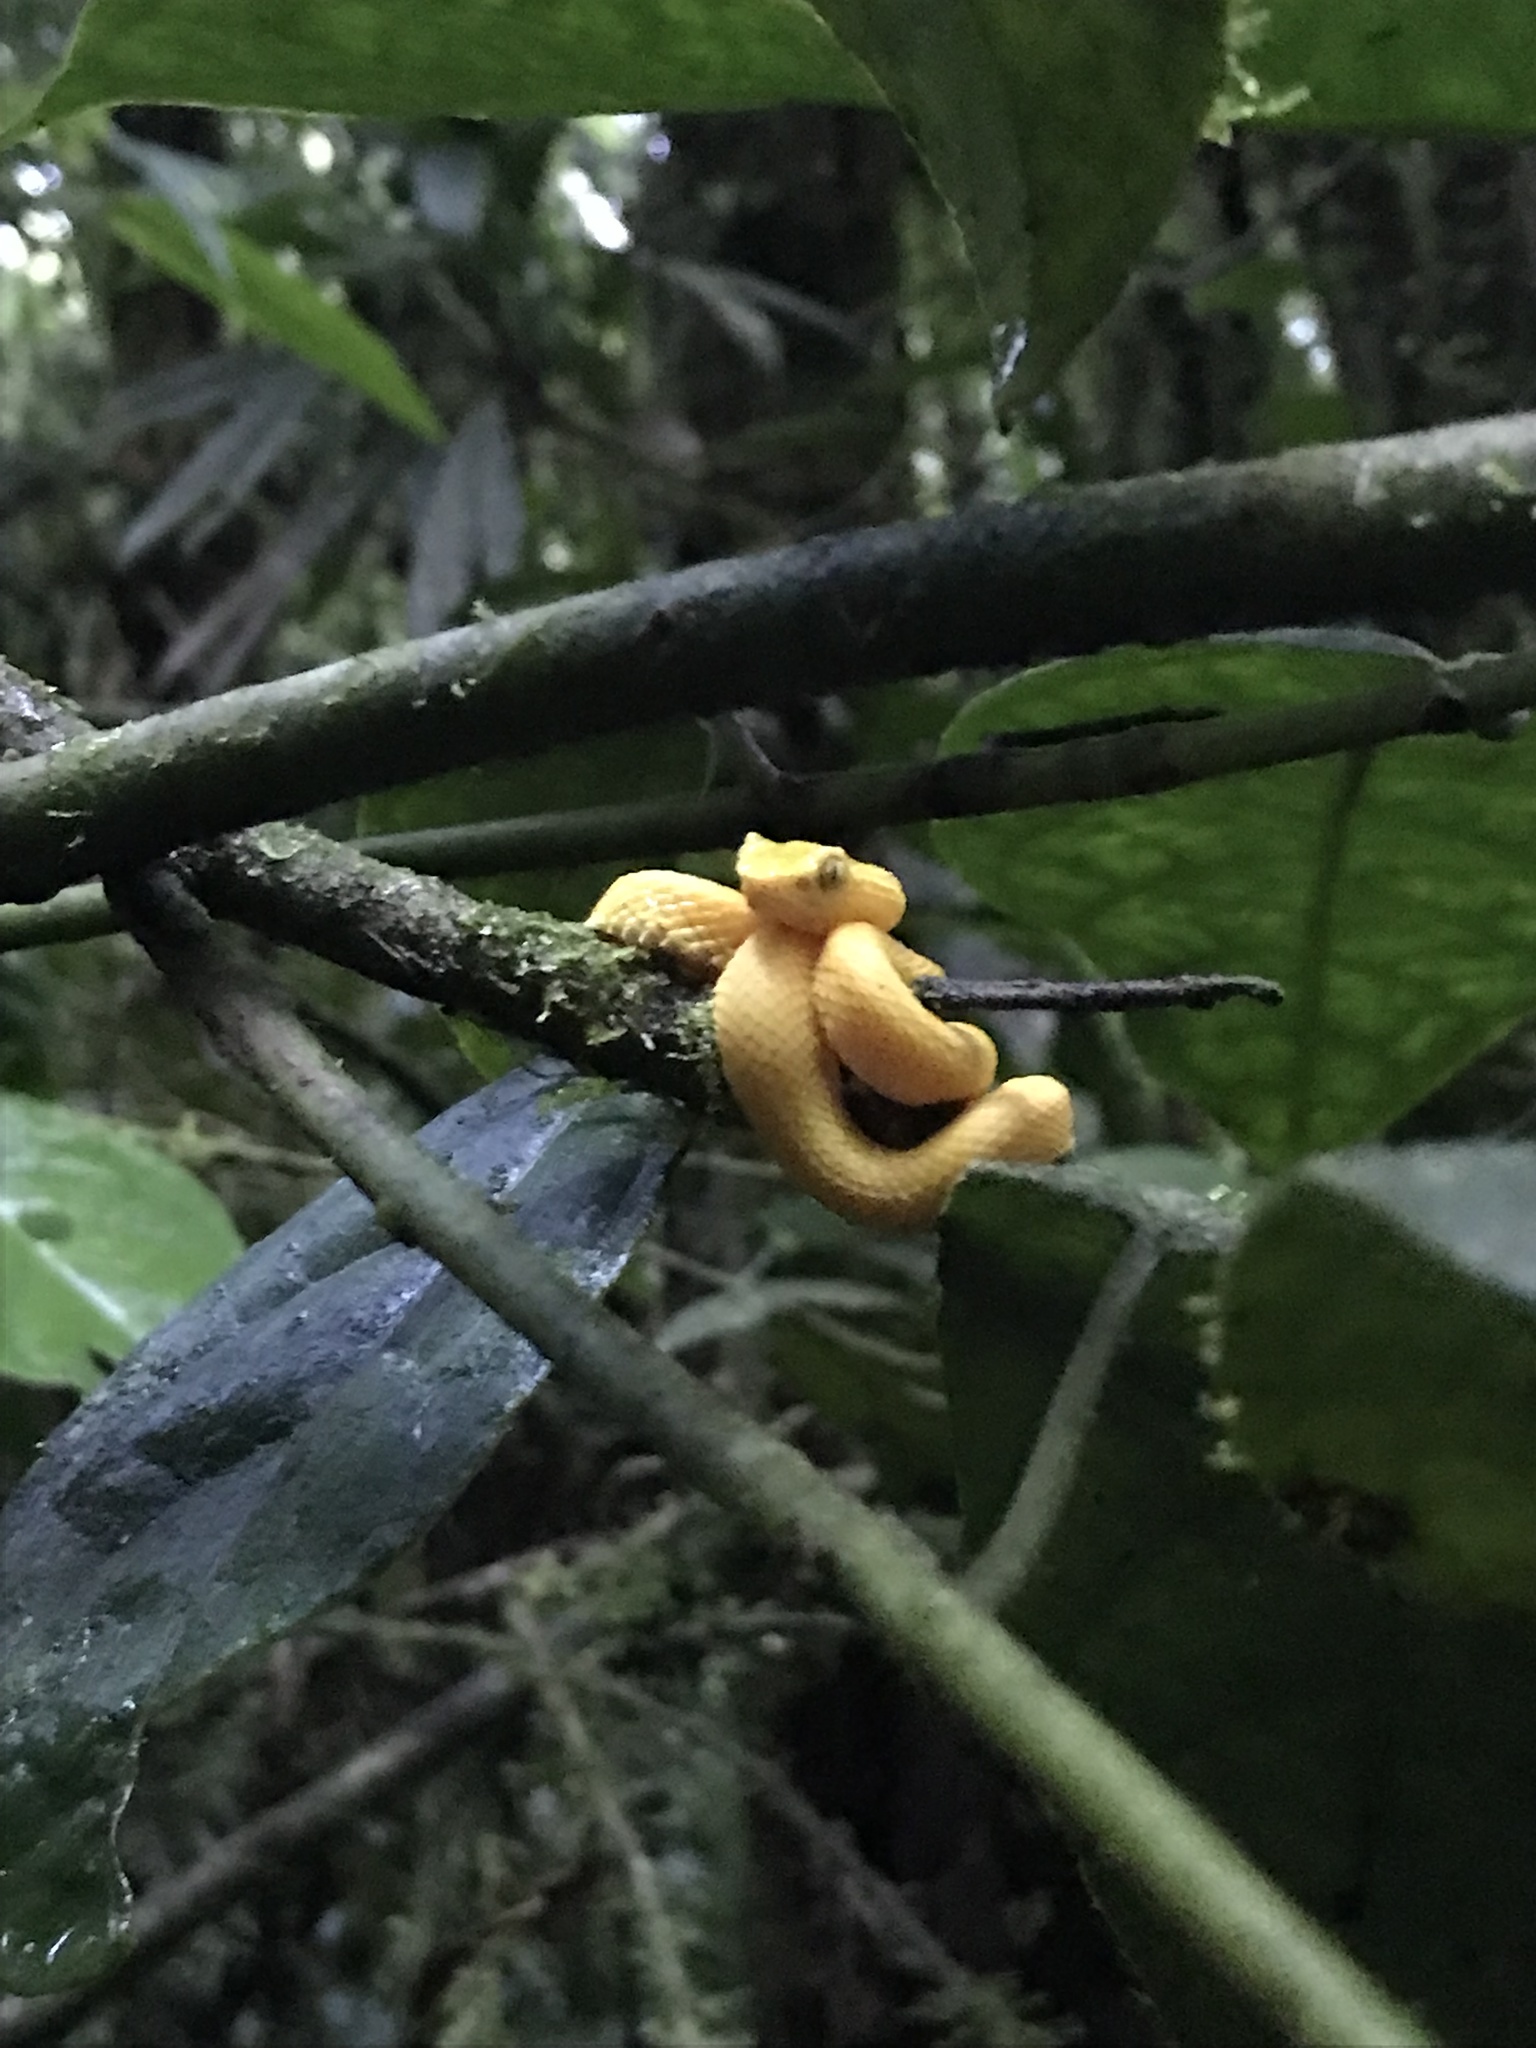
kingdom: Animalia
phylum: Chordata
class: Squamata
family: Viperidae
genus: Bothriechis
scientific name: Bothriechis schlegelii
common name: Eyelash viper
